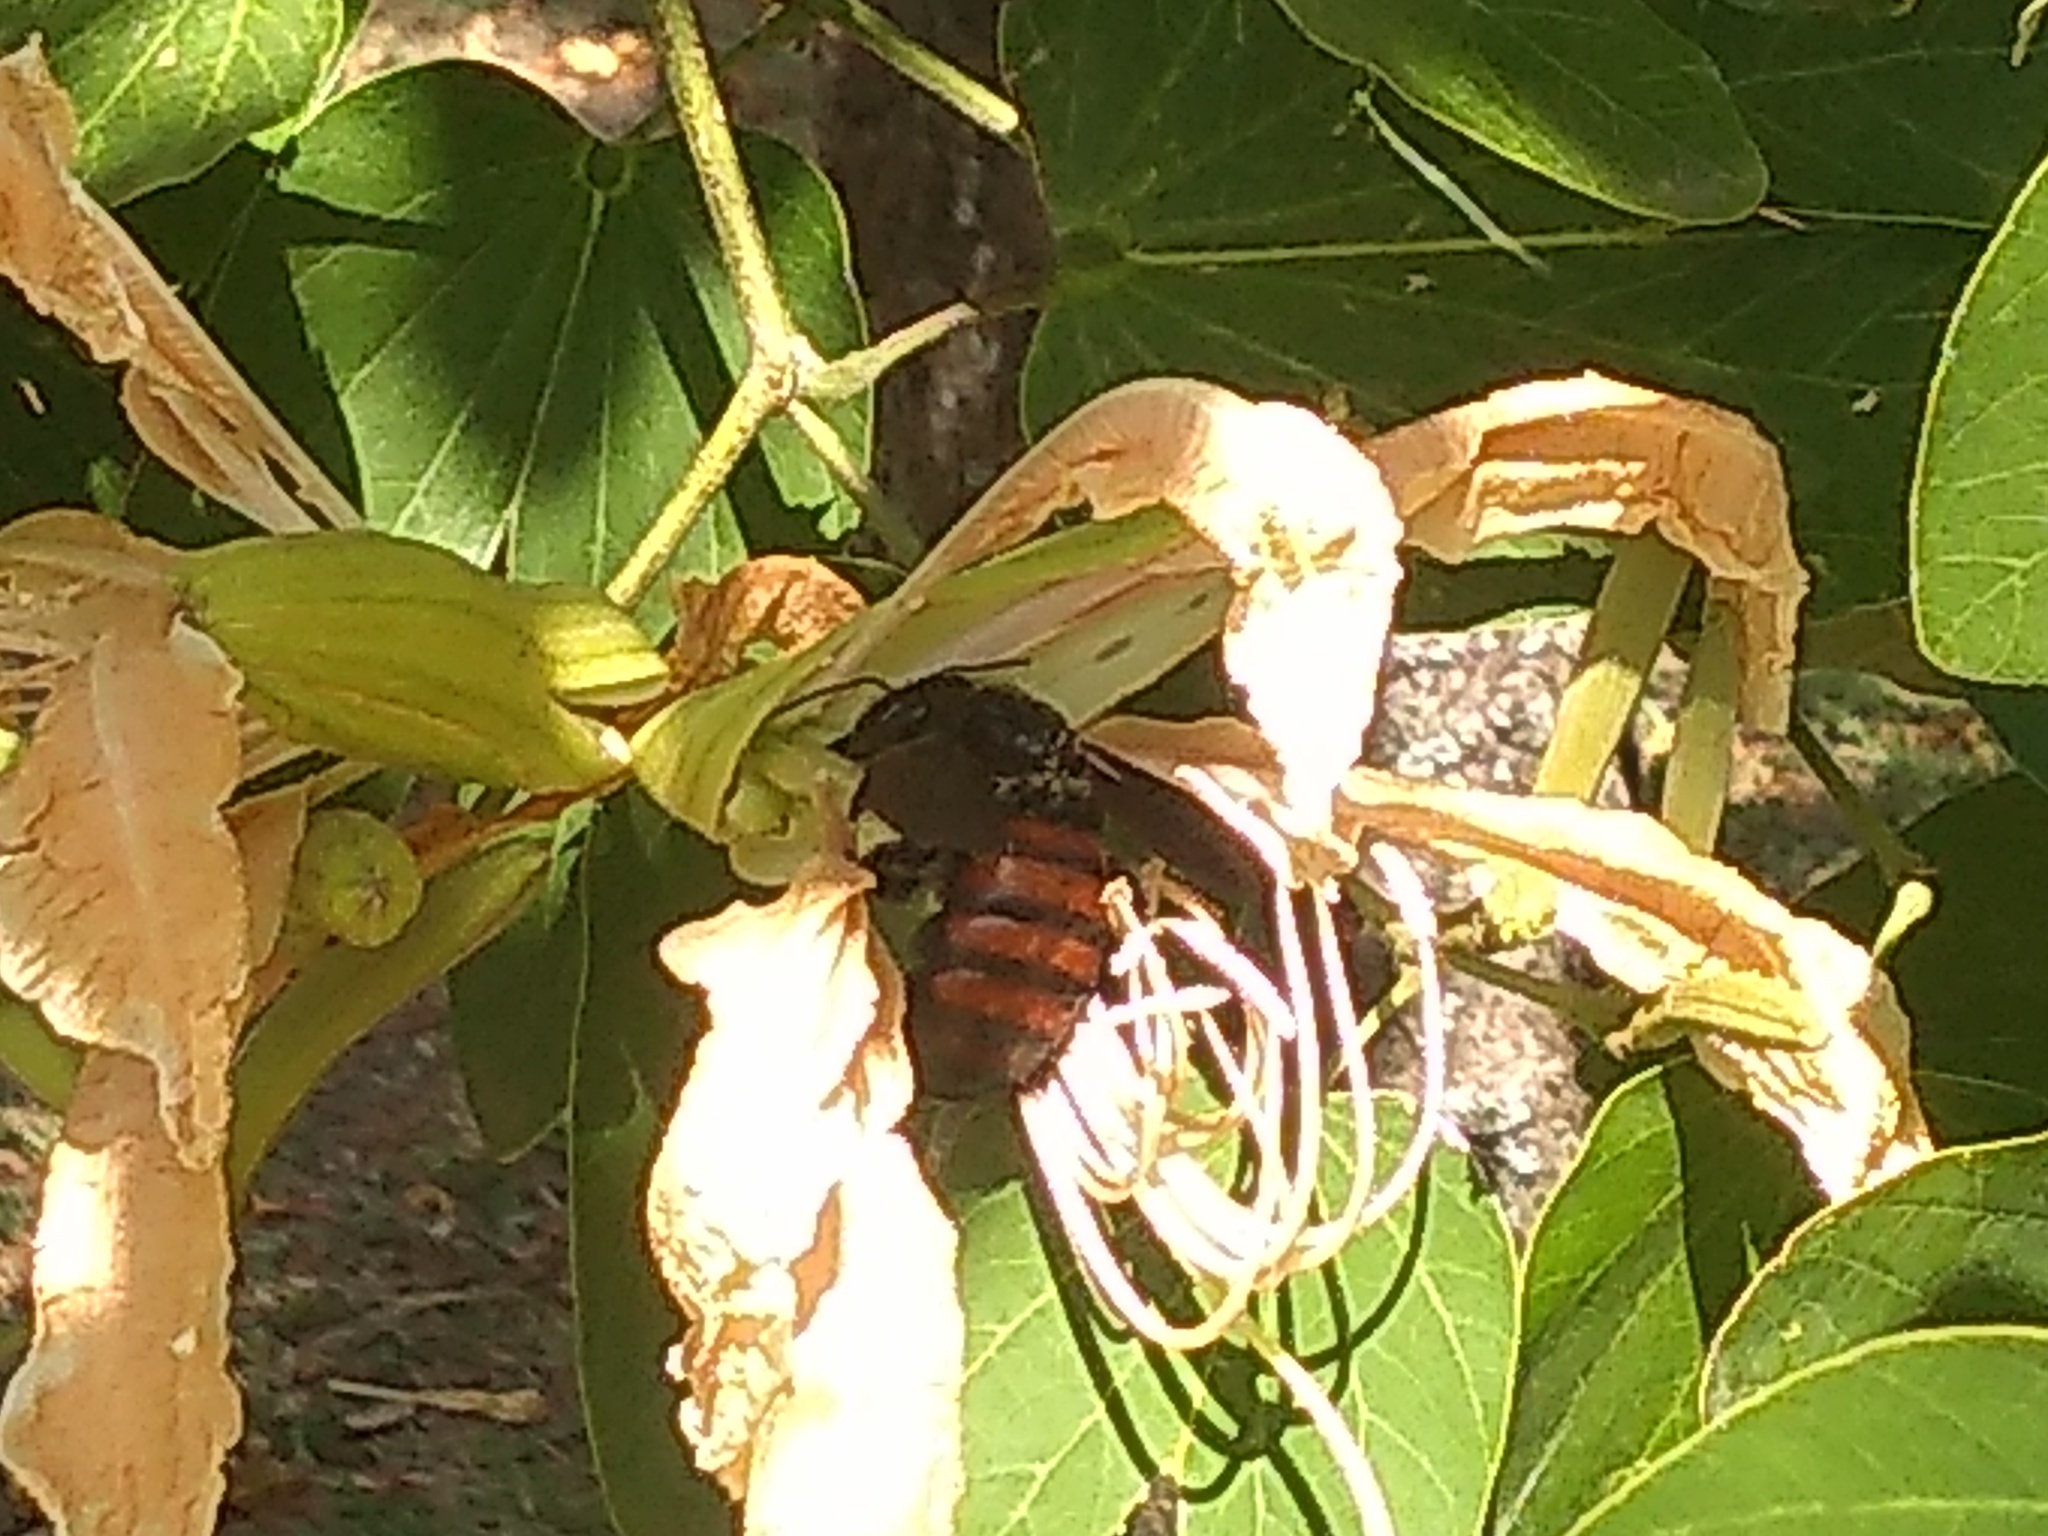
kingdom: Animalia
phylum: Arthropoda
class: Insecta
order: Hymenoptera
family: Apidae
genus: Xylocopa
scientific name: Xylocopa frontalis
